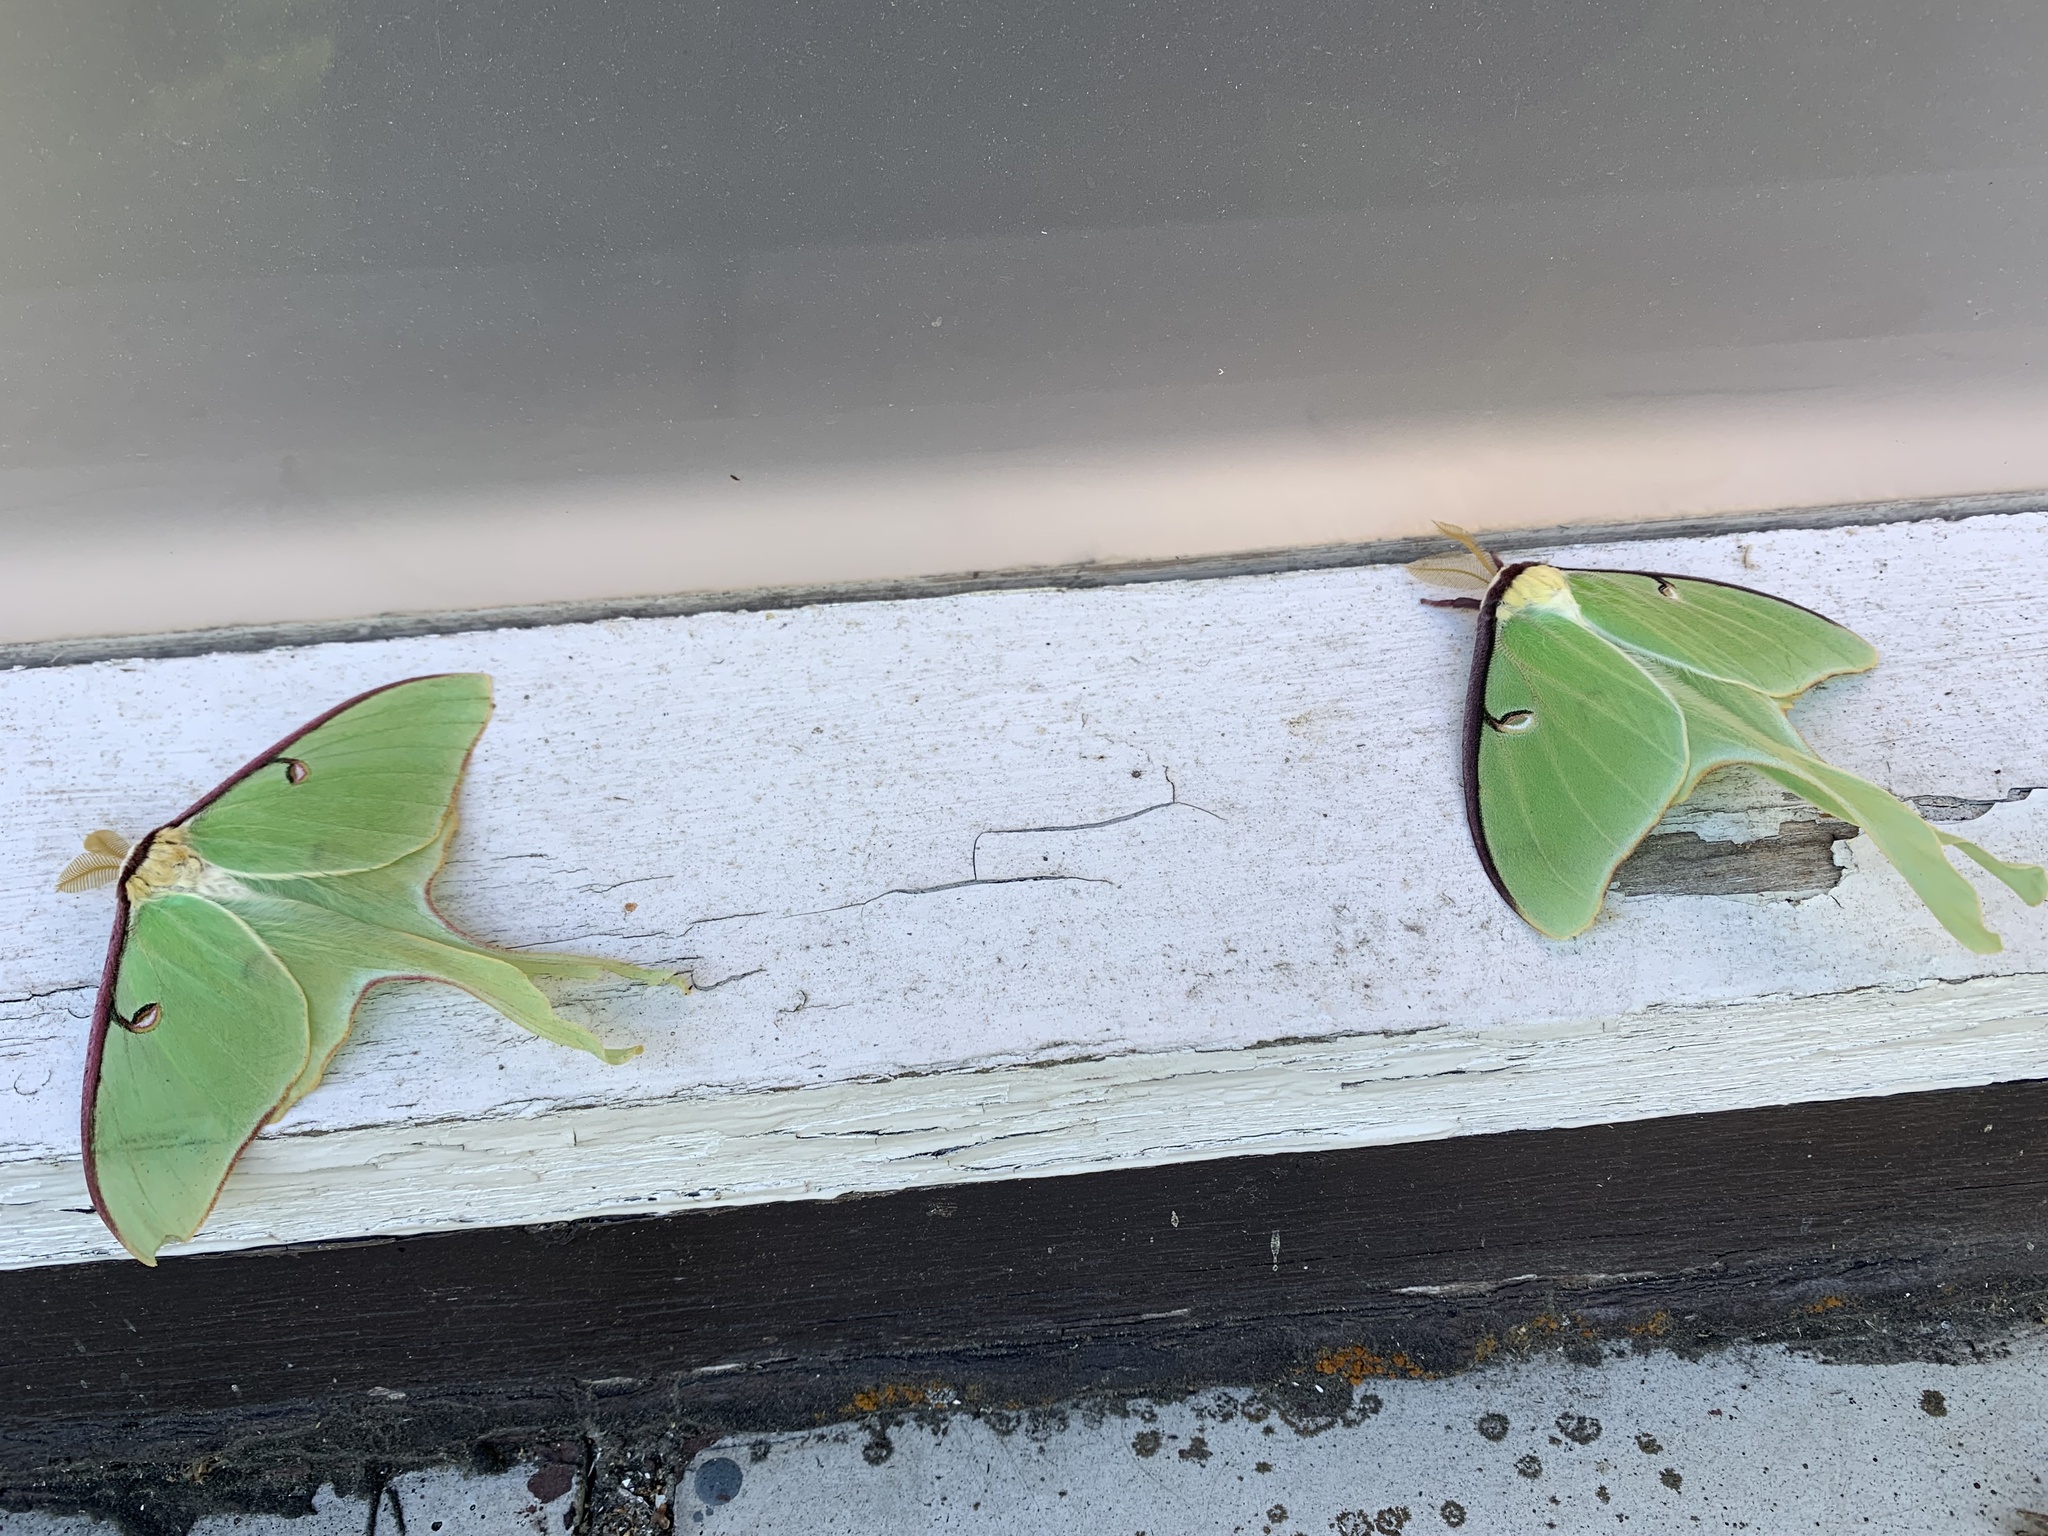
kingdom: Animalia
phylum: Arthropoda
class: Insecta
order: Lepidoptera
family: Saturniidae
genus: Actias
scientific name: Actias luna
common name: Luna moth
